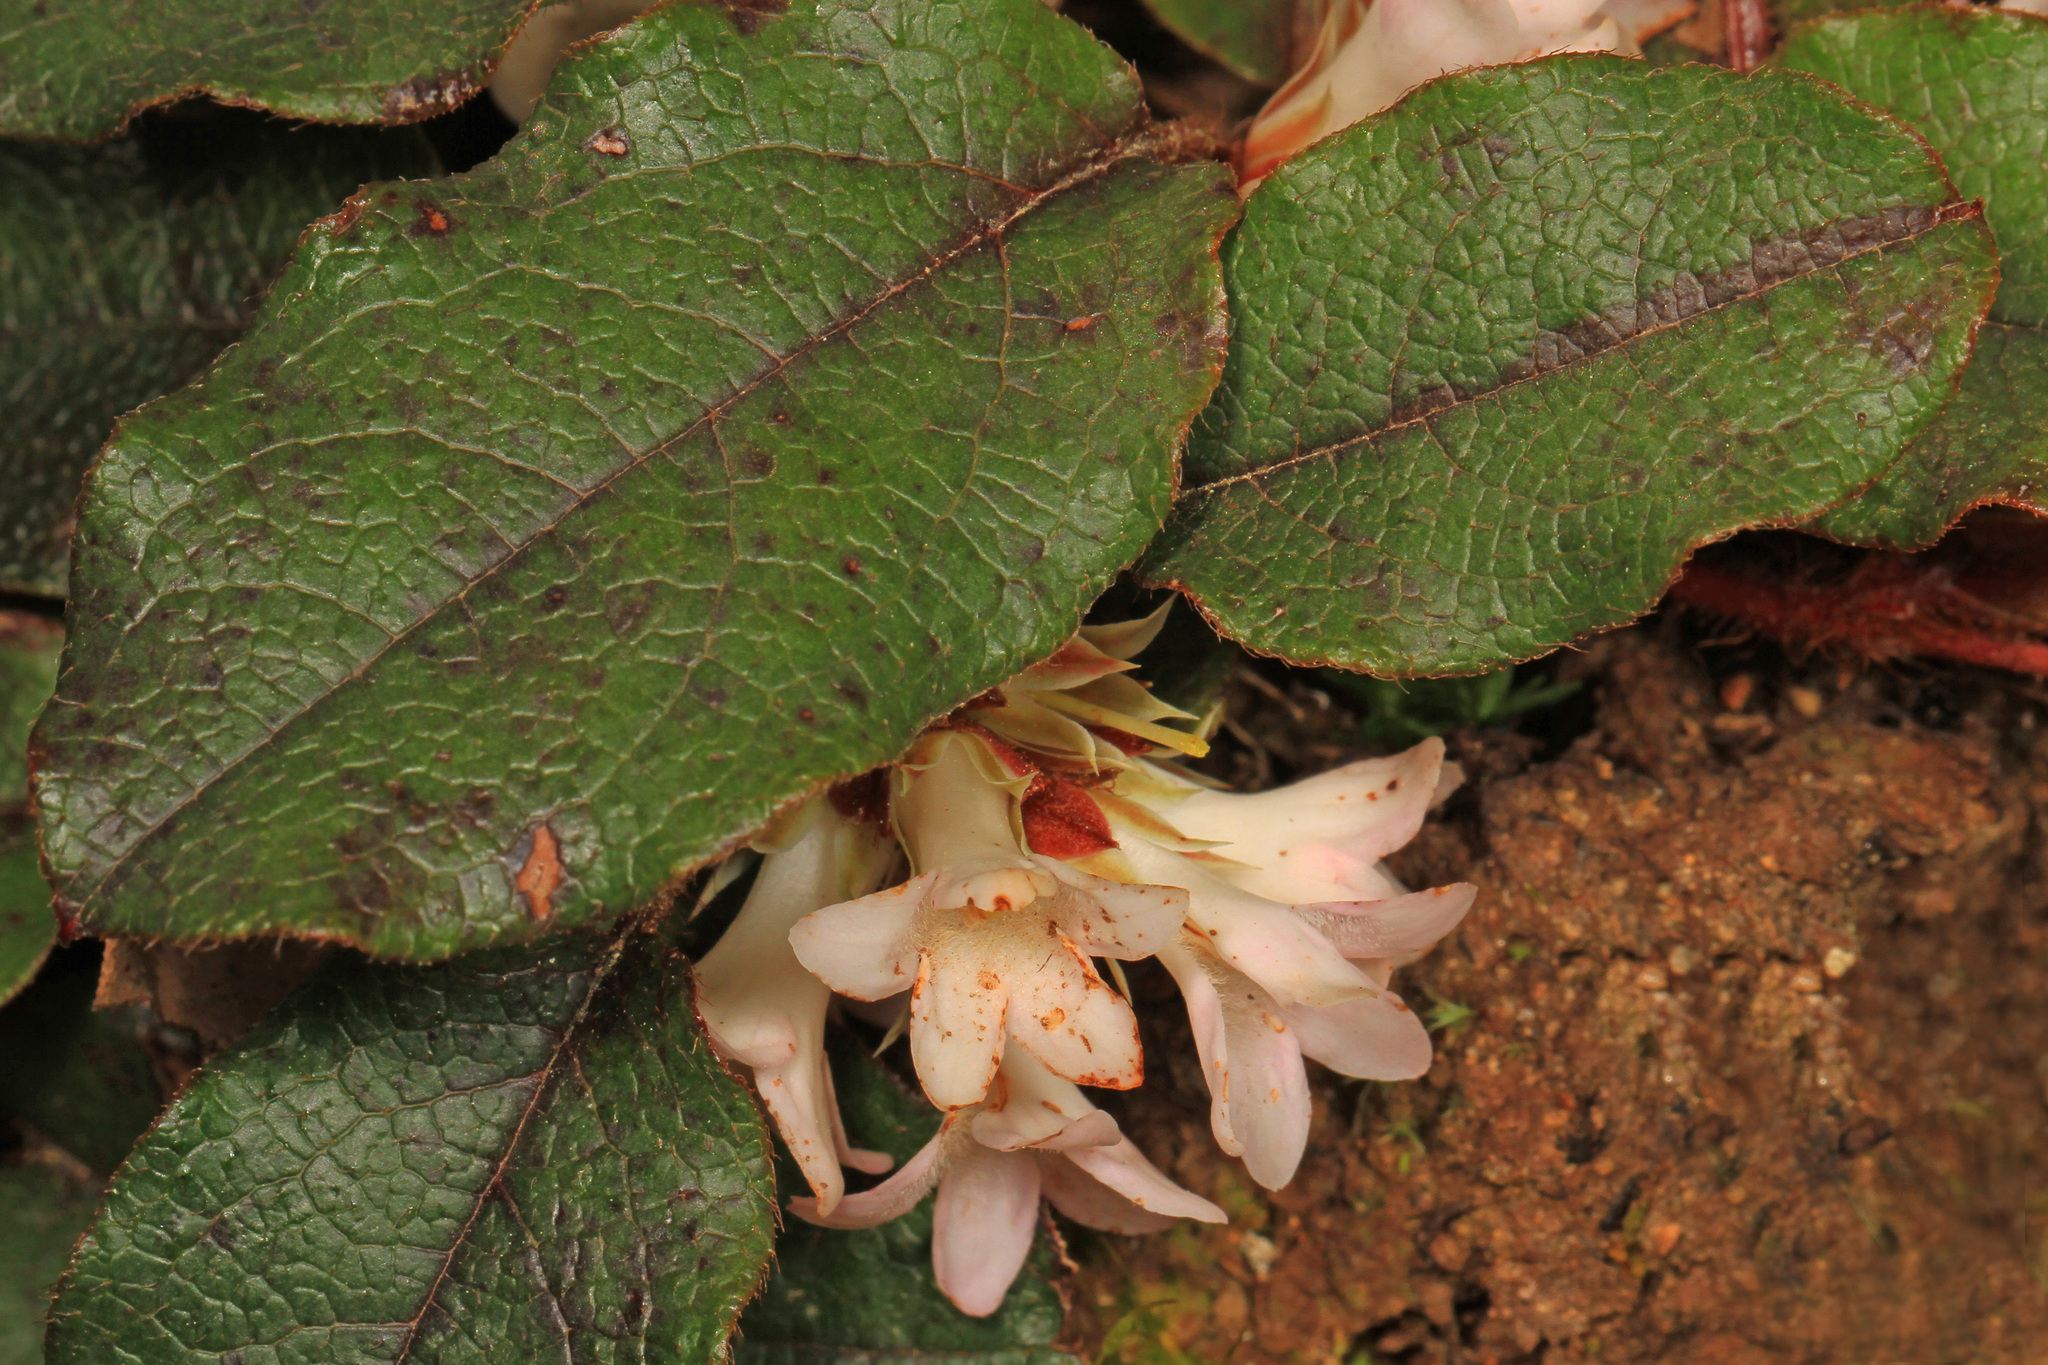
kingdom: Plantae
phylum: Tracheophyta
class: Magnoliopsida
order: Ericales
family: Ericaceae
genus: Epigaea
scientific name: Epigaea repens
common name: Gravelroot
